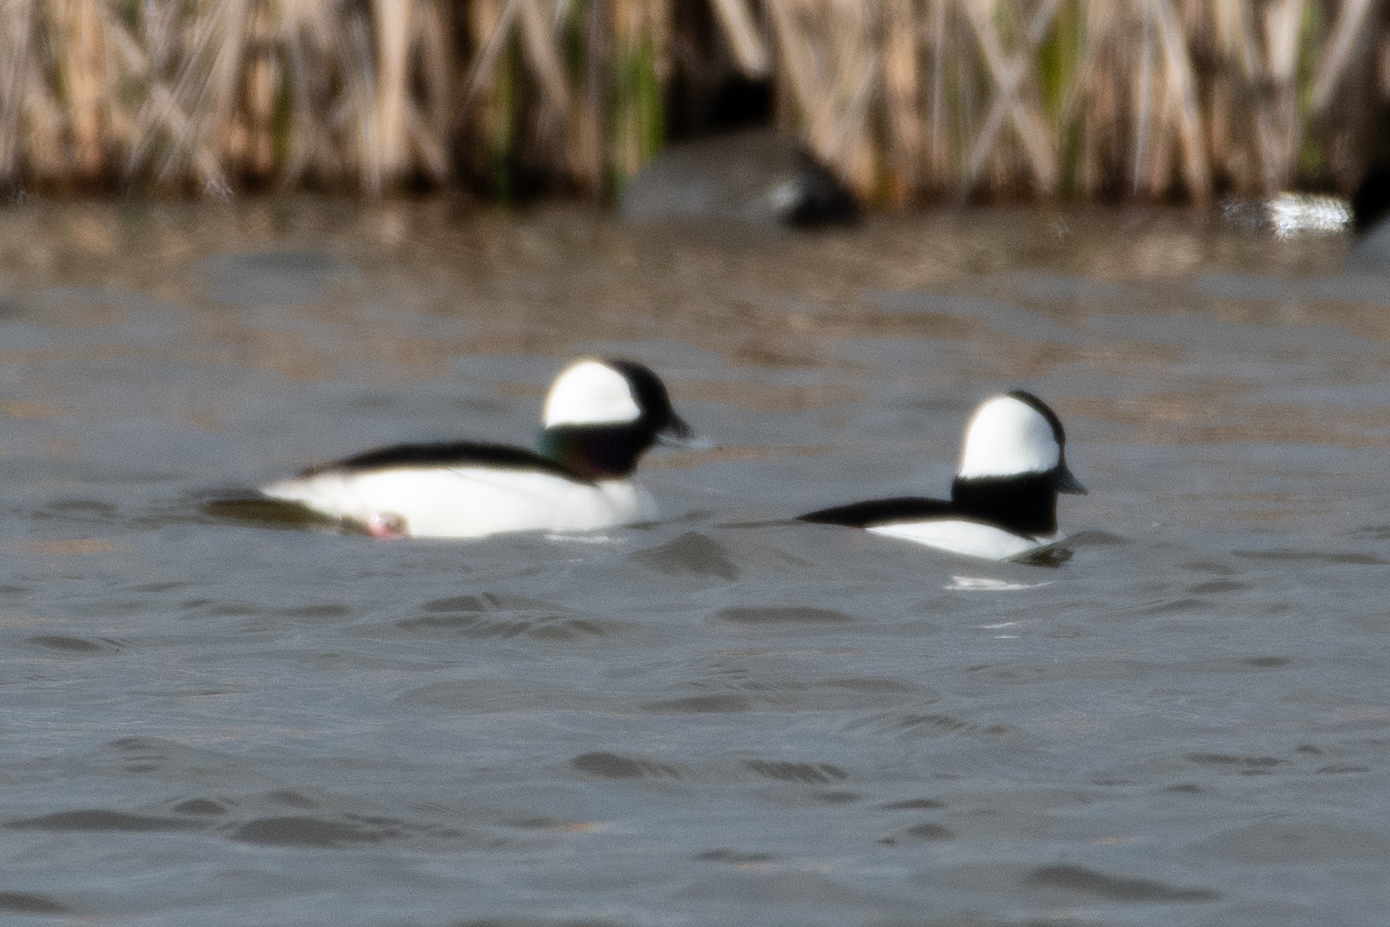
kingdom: Animalia
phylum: Chordata
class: Aves
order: Anseriformes
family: Anatidae
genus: Bucephala
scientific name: Bucephala albeola
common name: Bufflehead
